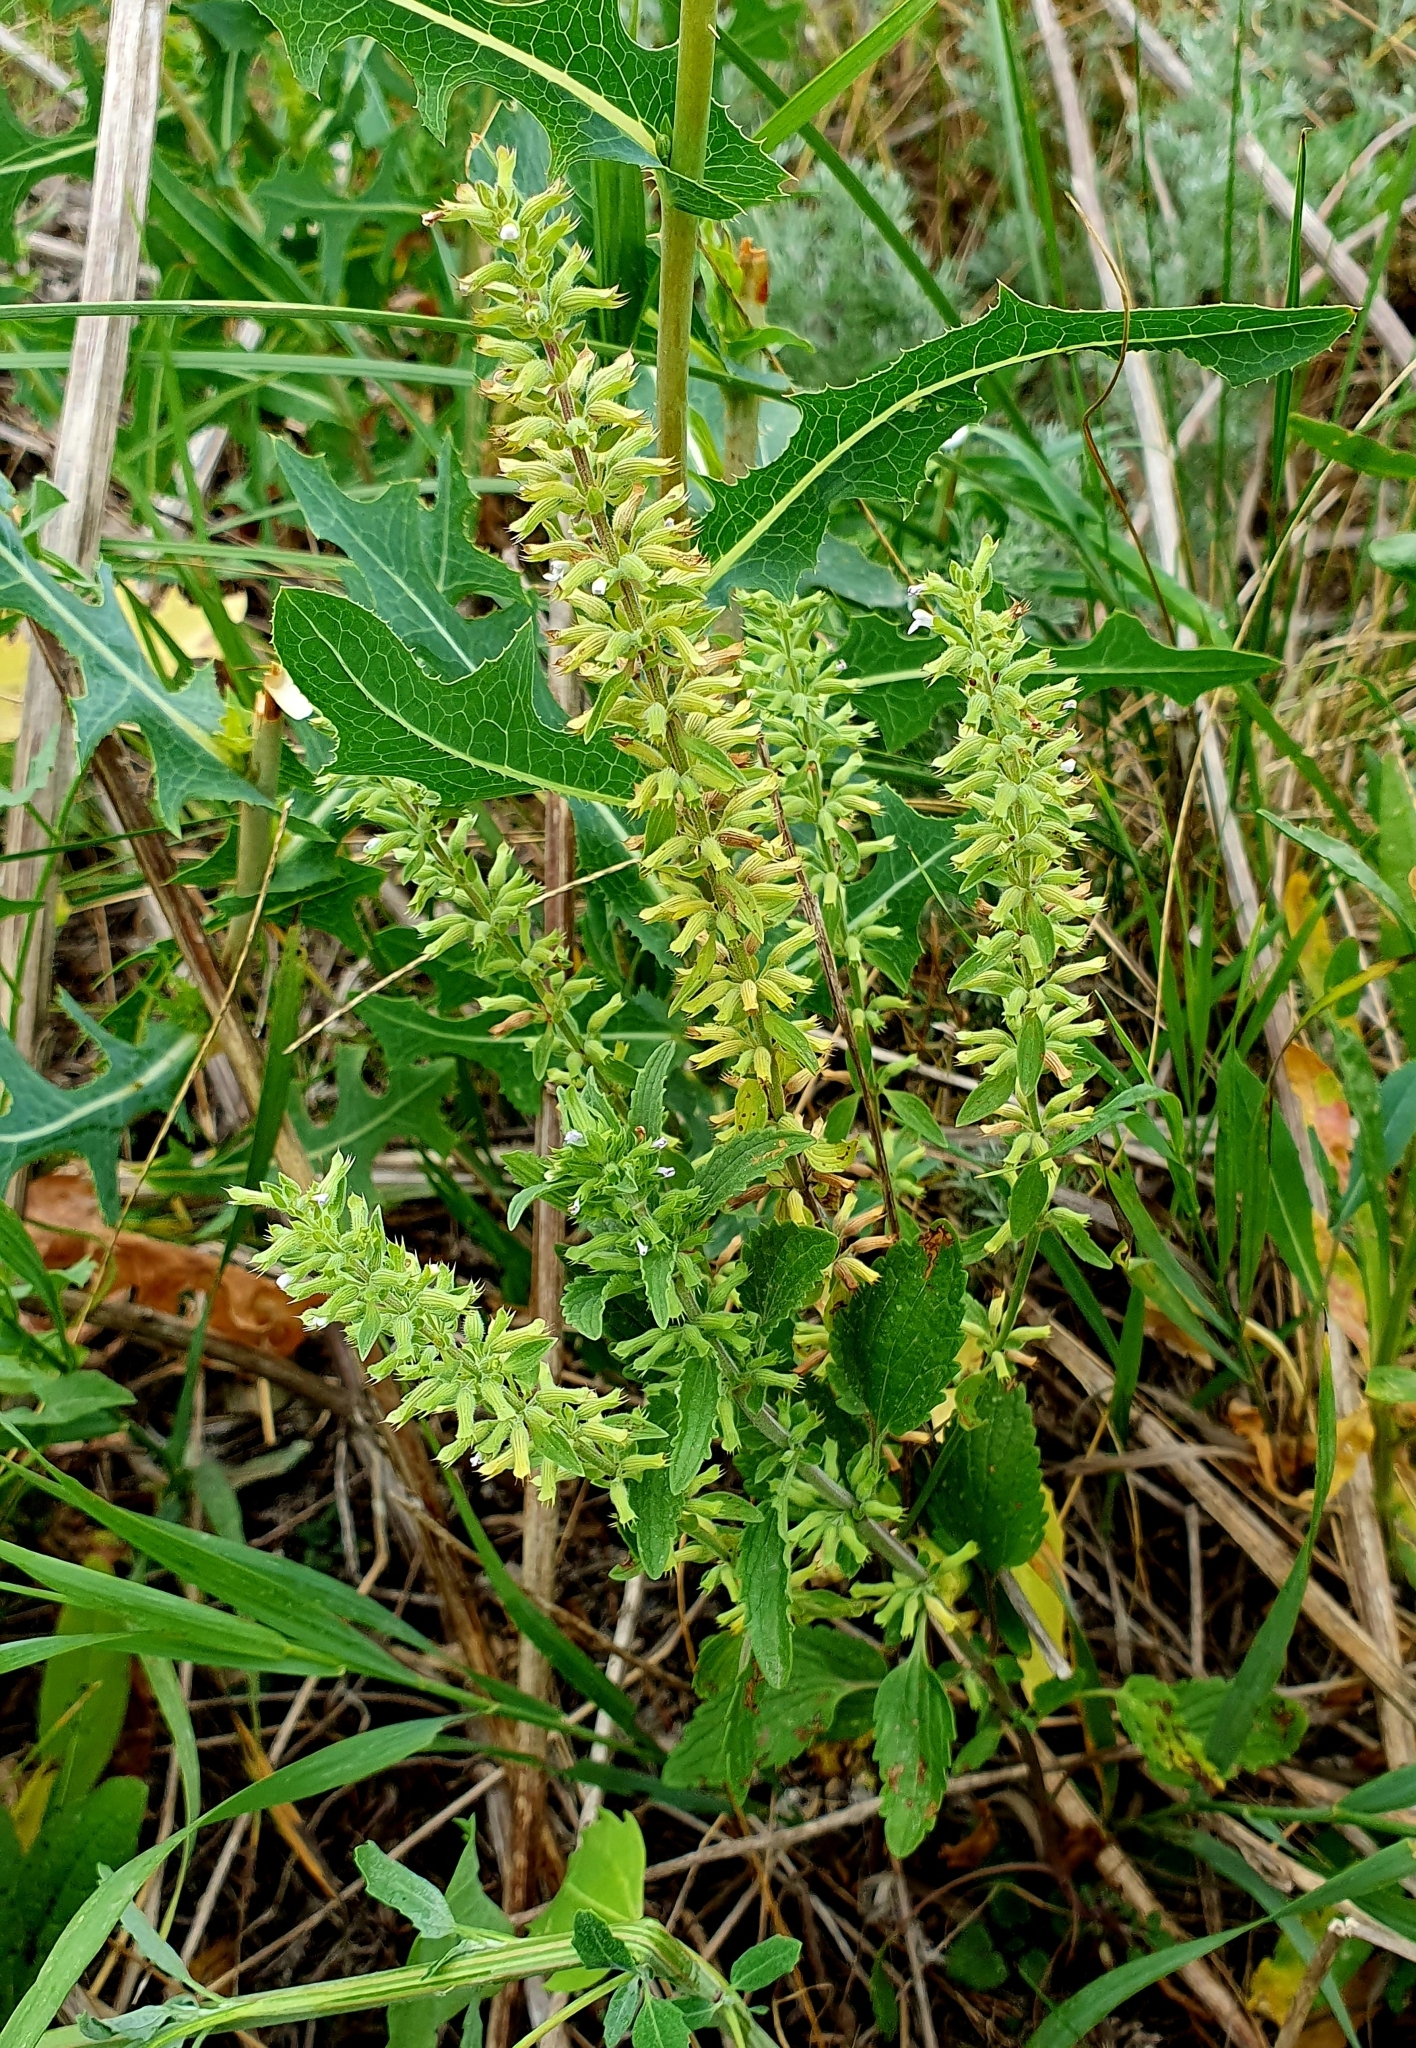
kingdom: Plantae
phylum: Tracheophyta
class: Magnoliopsida
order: Lamiales
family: Lamiaceae
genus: Dracocephalum
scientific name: Dracocephalum thymiflorum
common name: Thymeleaf dragonhead
